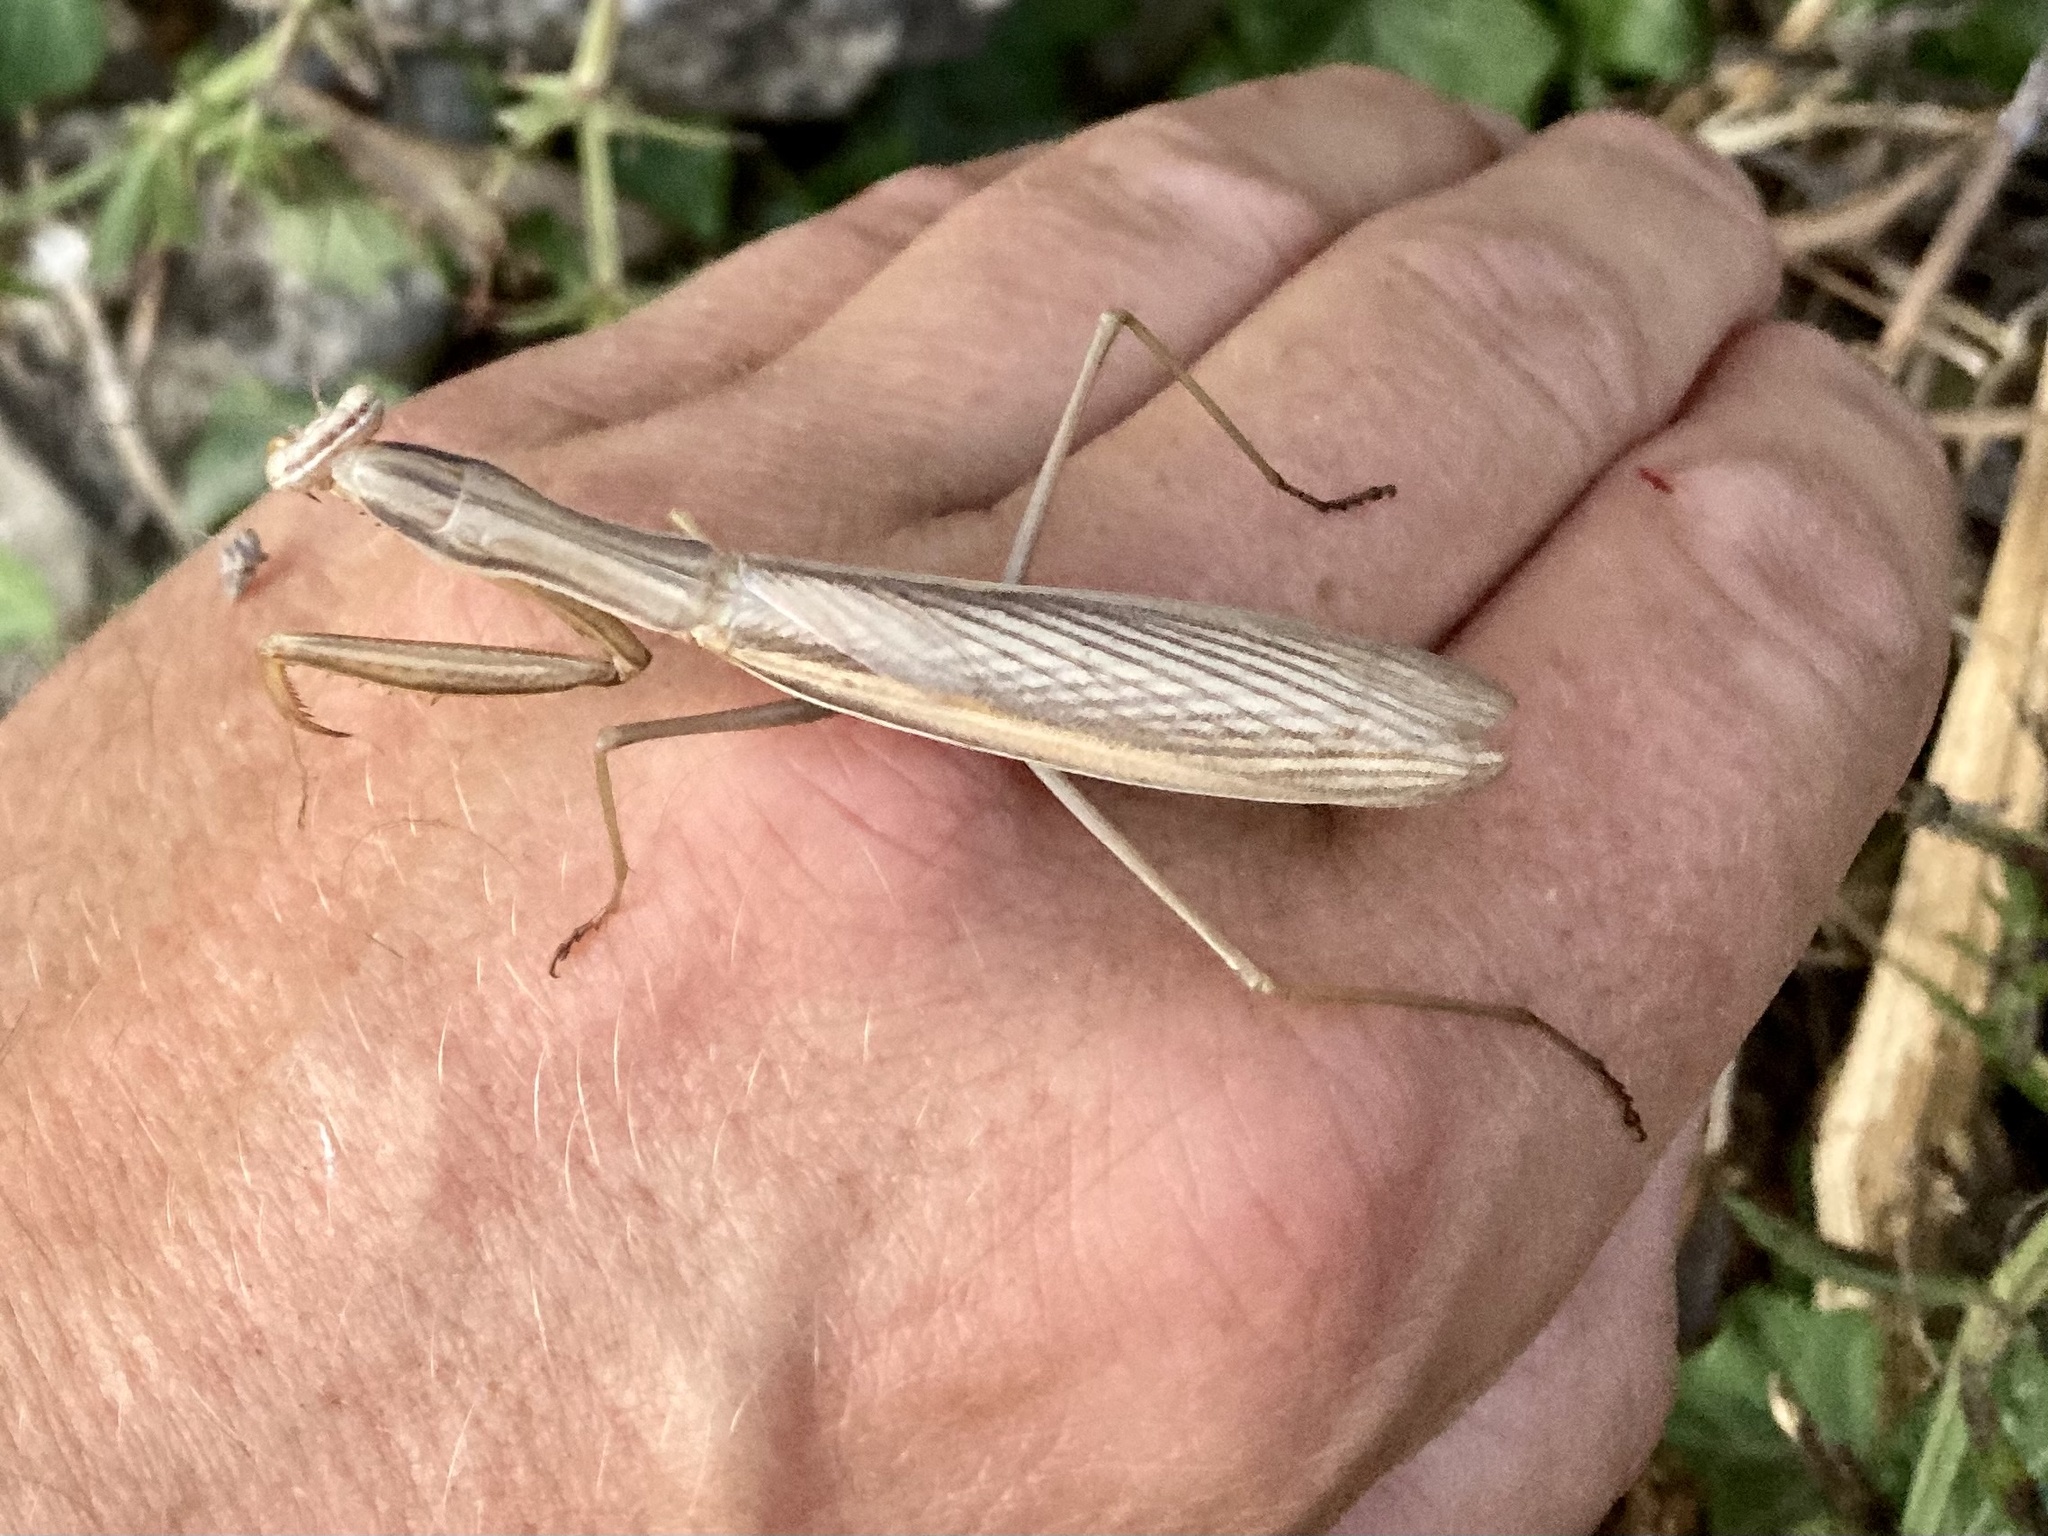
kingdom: Animalia
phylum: Arthropoda
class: Insecta
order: Mantodea
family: Mantidae
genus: Mantis
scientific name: Mantis religiosa
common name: Praying mantis
